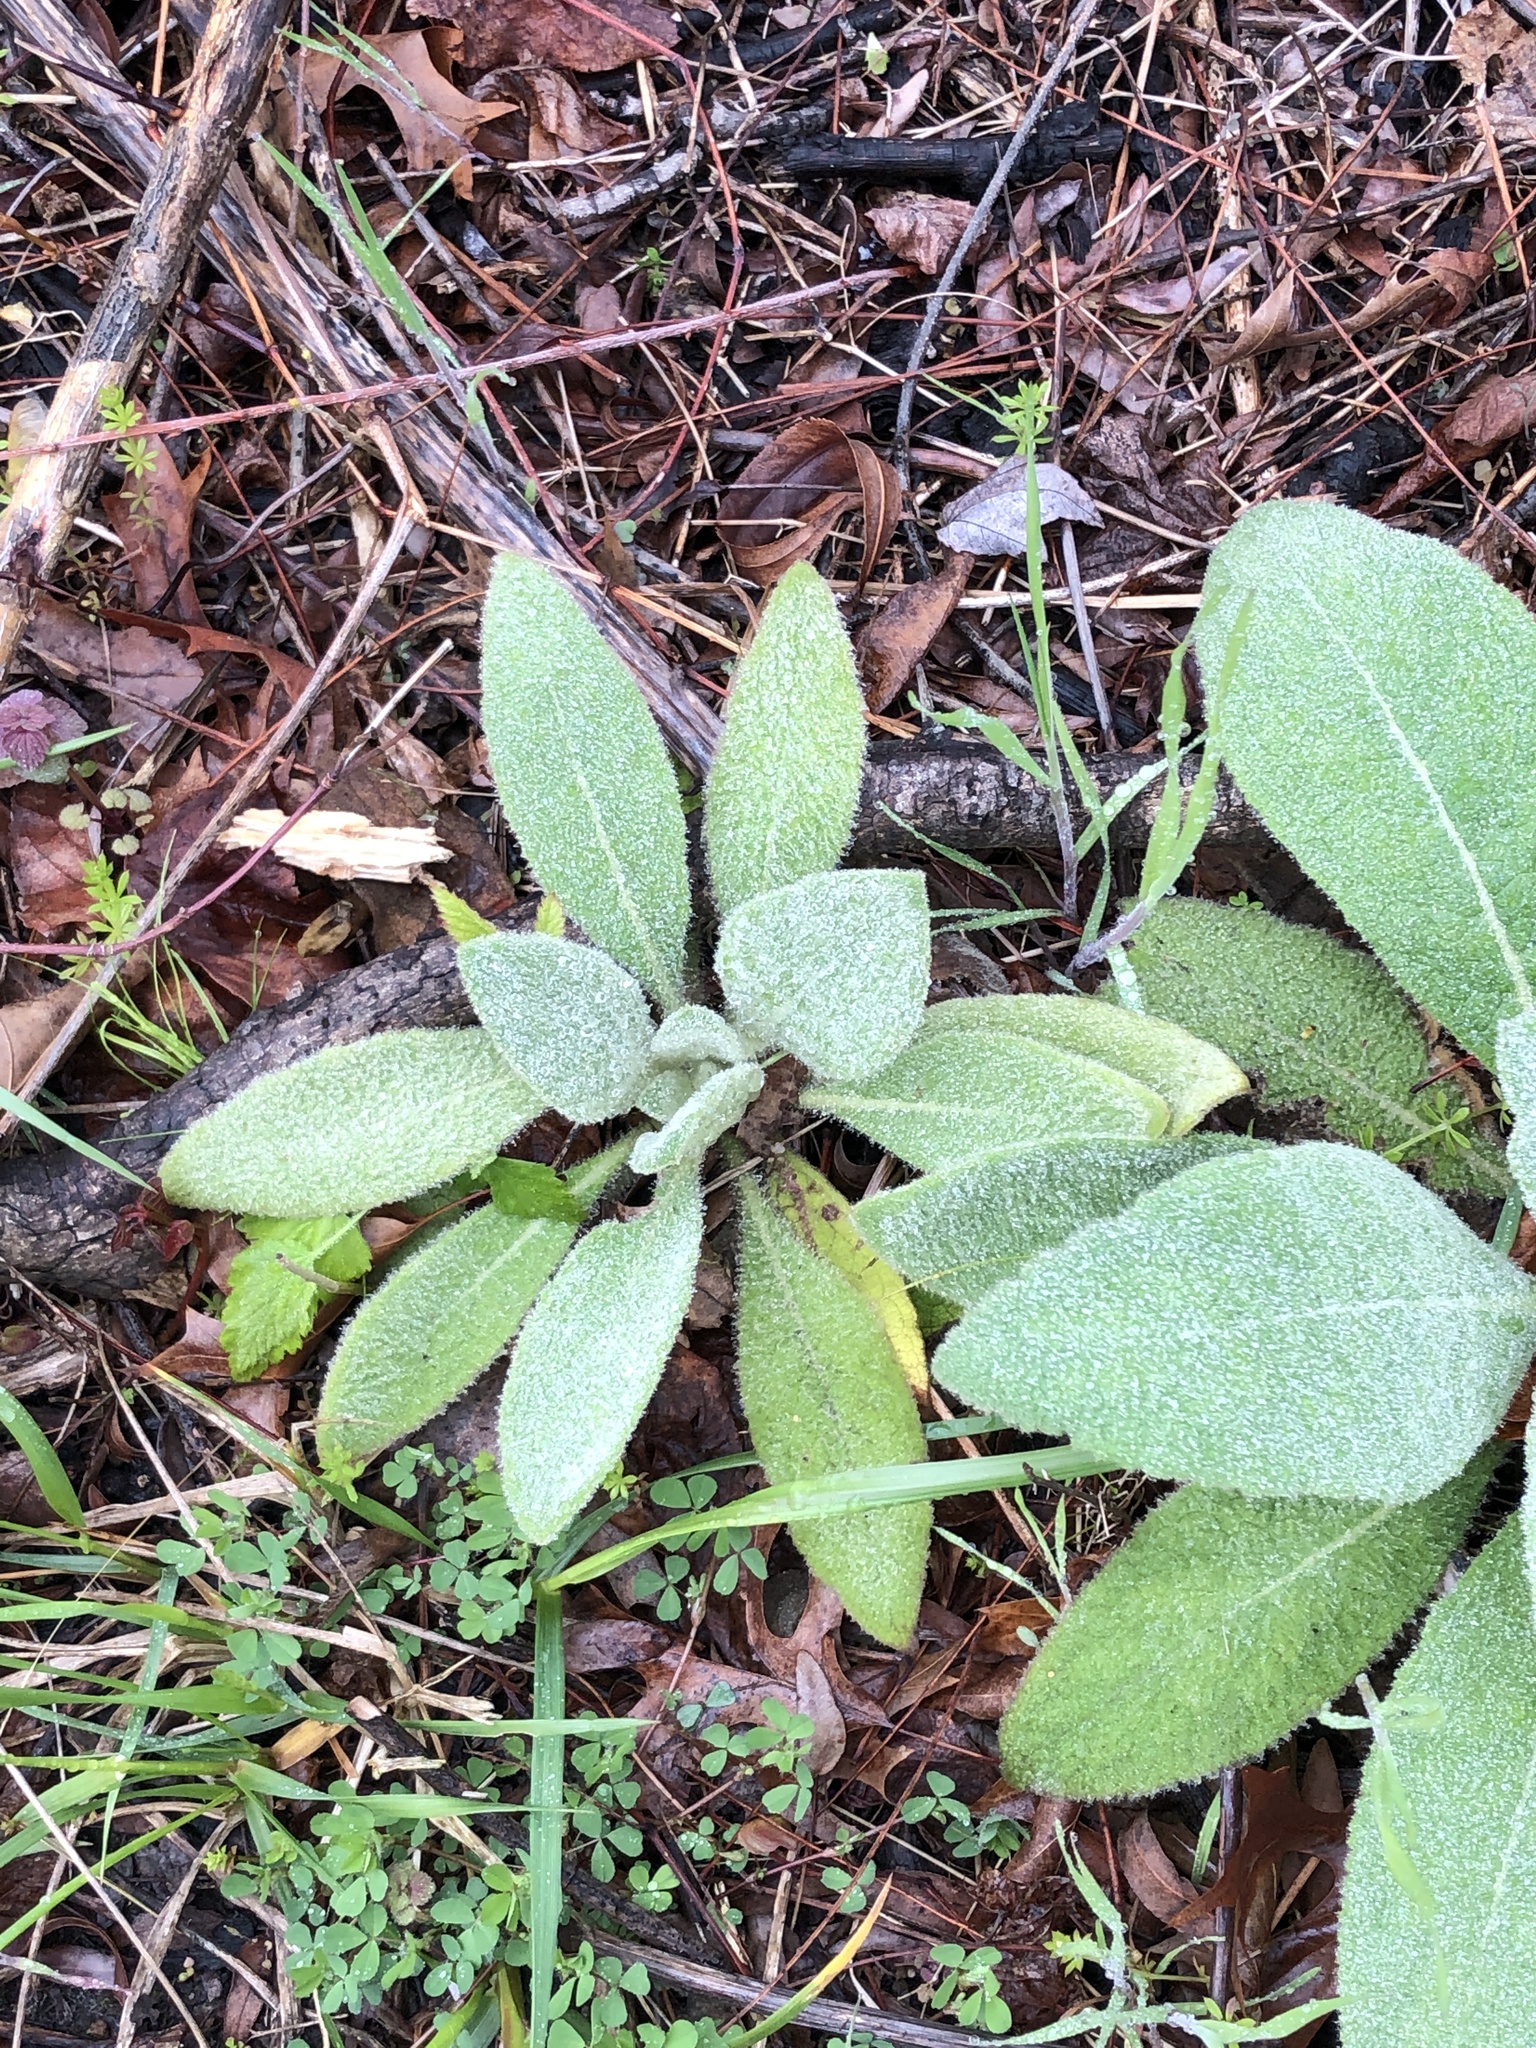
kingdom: Plantae
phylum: Tracheophyta
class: Magnoliopsida
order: Lamiales
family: Scrophulariaceae
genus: Verbascum
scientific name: Verbascum thapsus
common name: Common mullein
